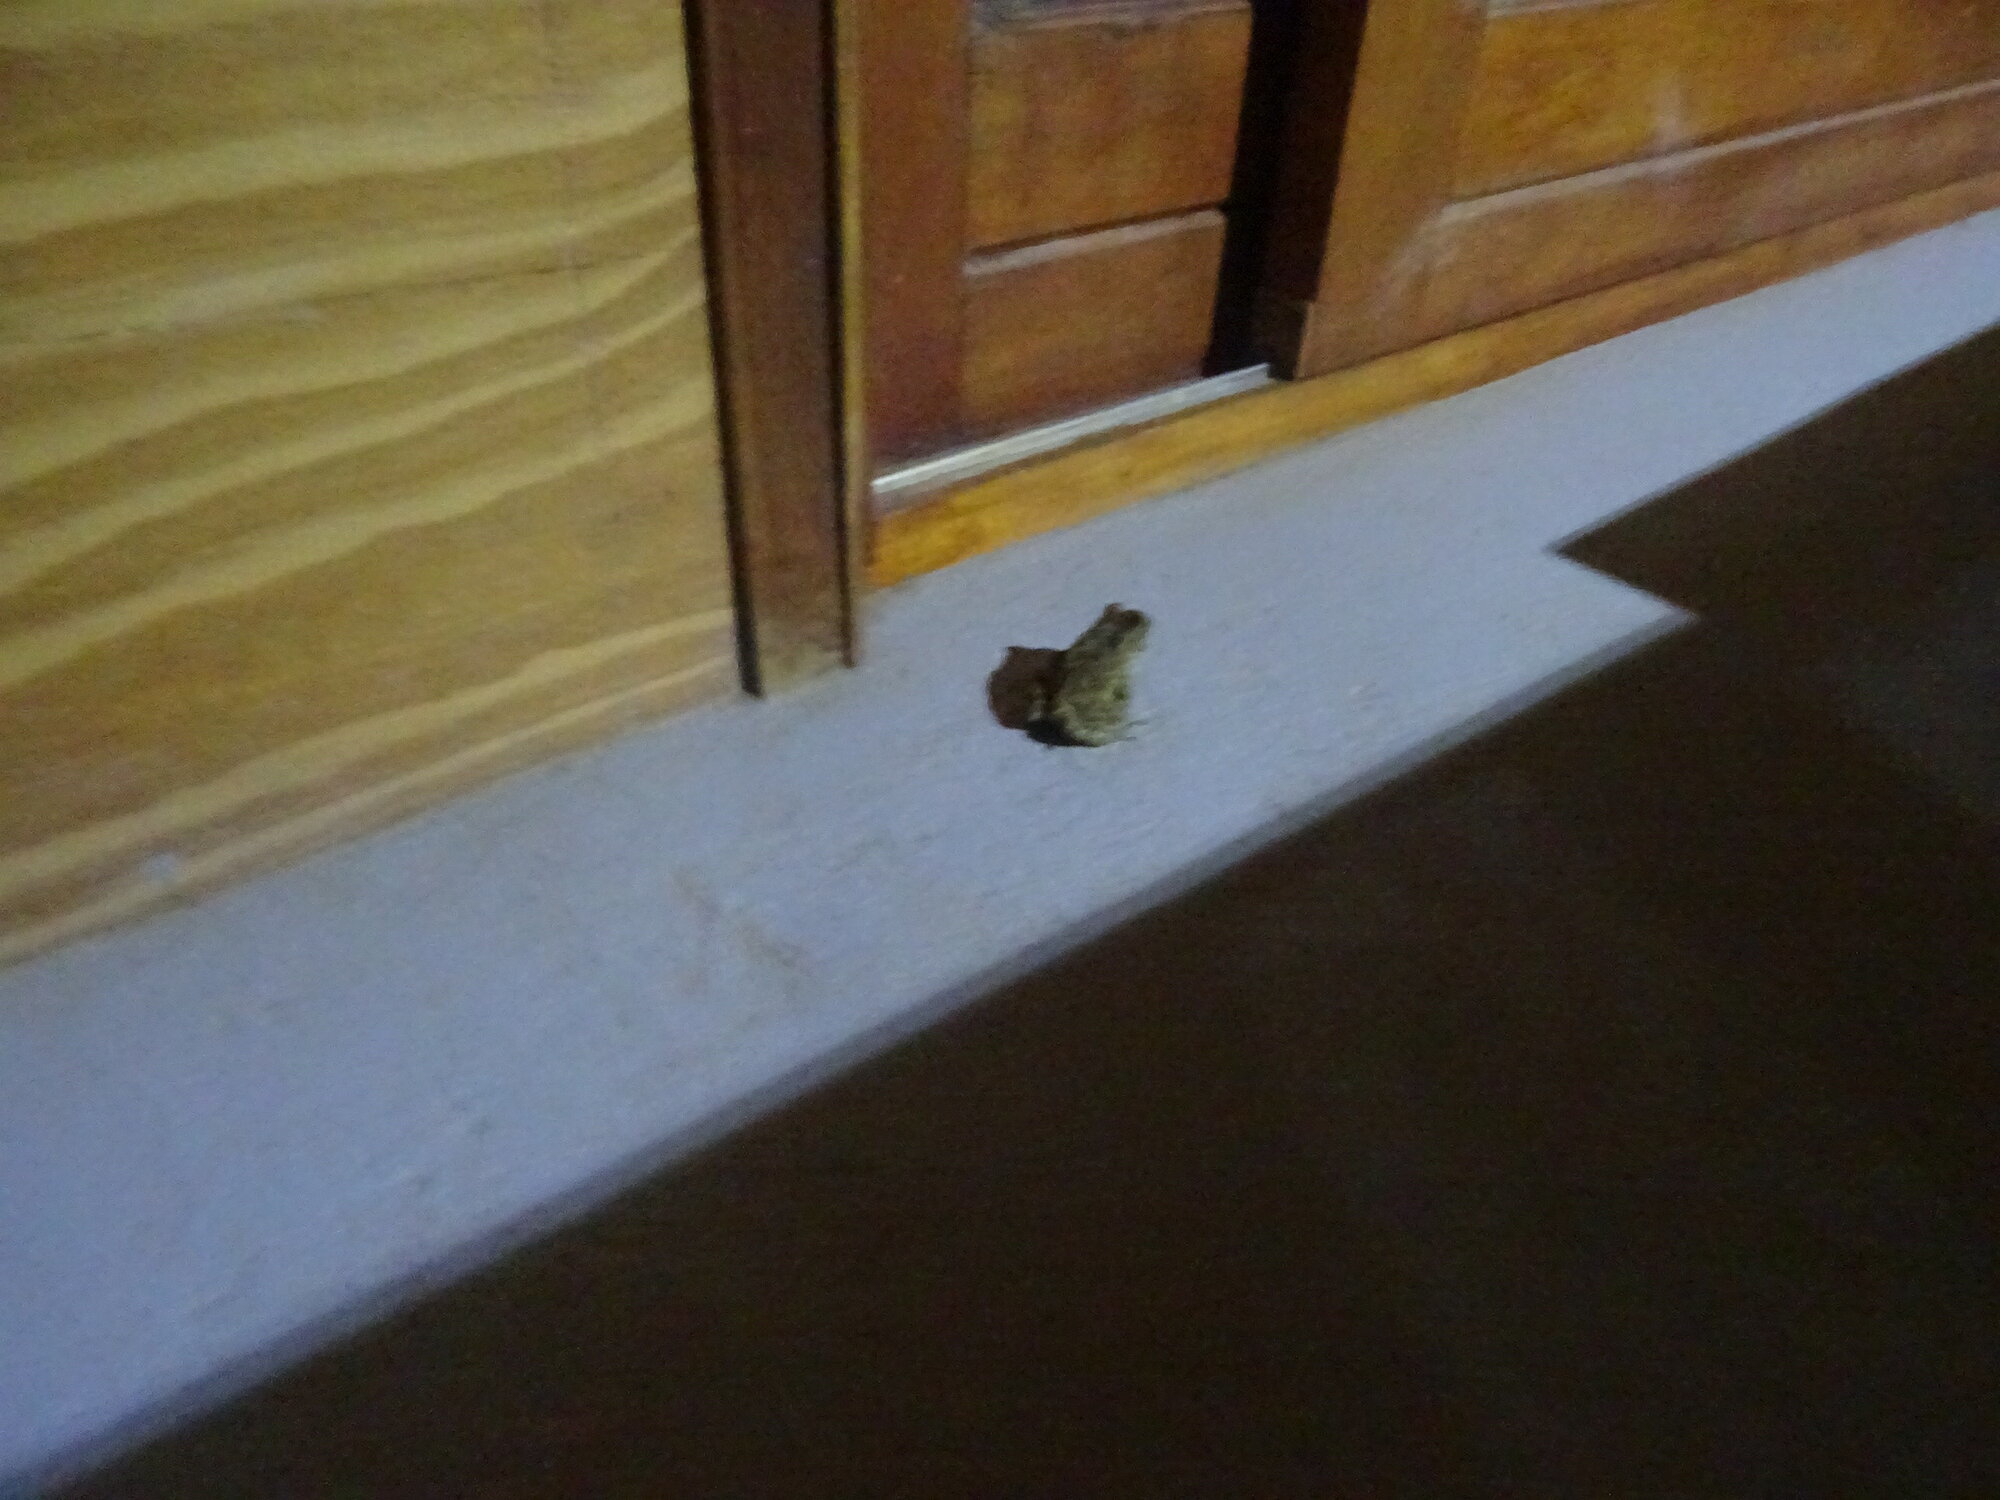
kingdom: Animalia
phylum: Chordata
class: Amphibia
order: Anura
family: Bufonidae
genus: Sclerophrys
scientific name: Sclerophrys capensis
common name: Ranger’s toad
